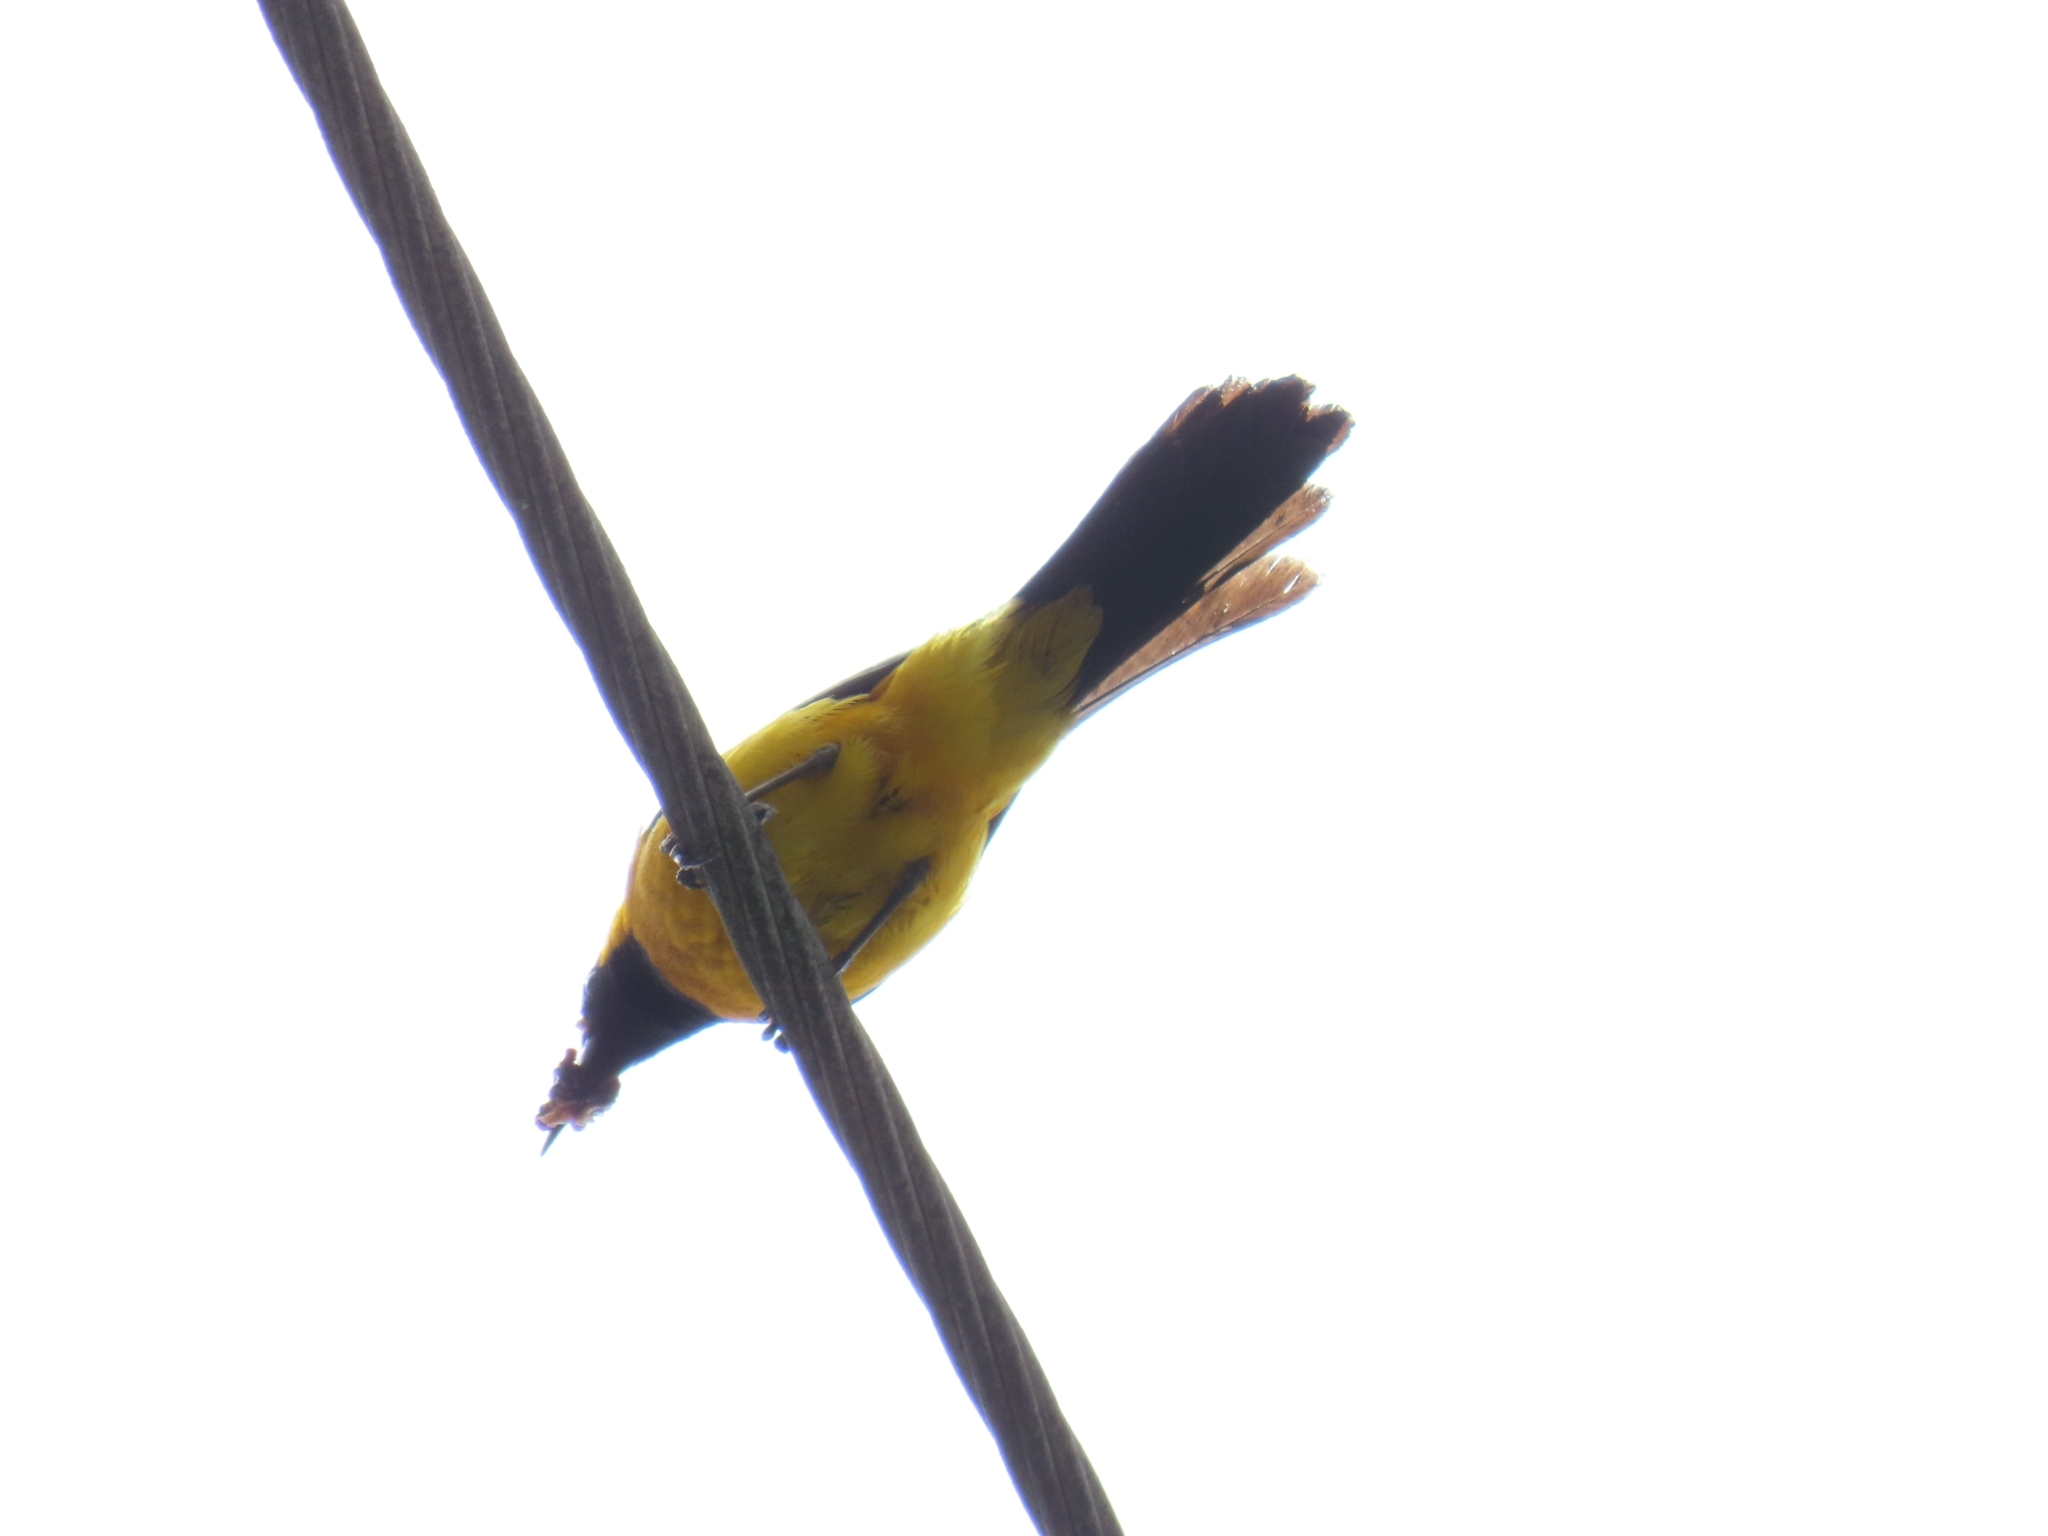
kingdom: Animalia
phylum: Chordata
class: Aves
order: Passeriformes
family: Icteridae
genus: Icterus
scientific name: Icterus cucullatus
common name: Hooded oriole
